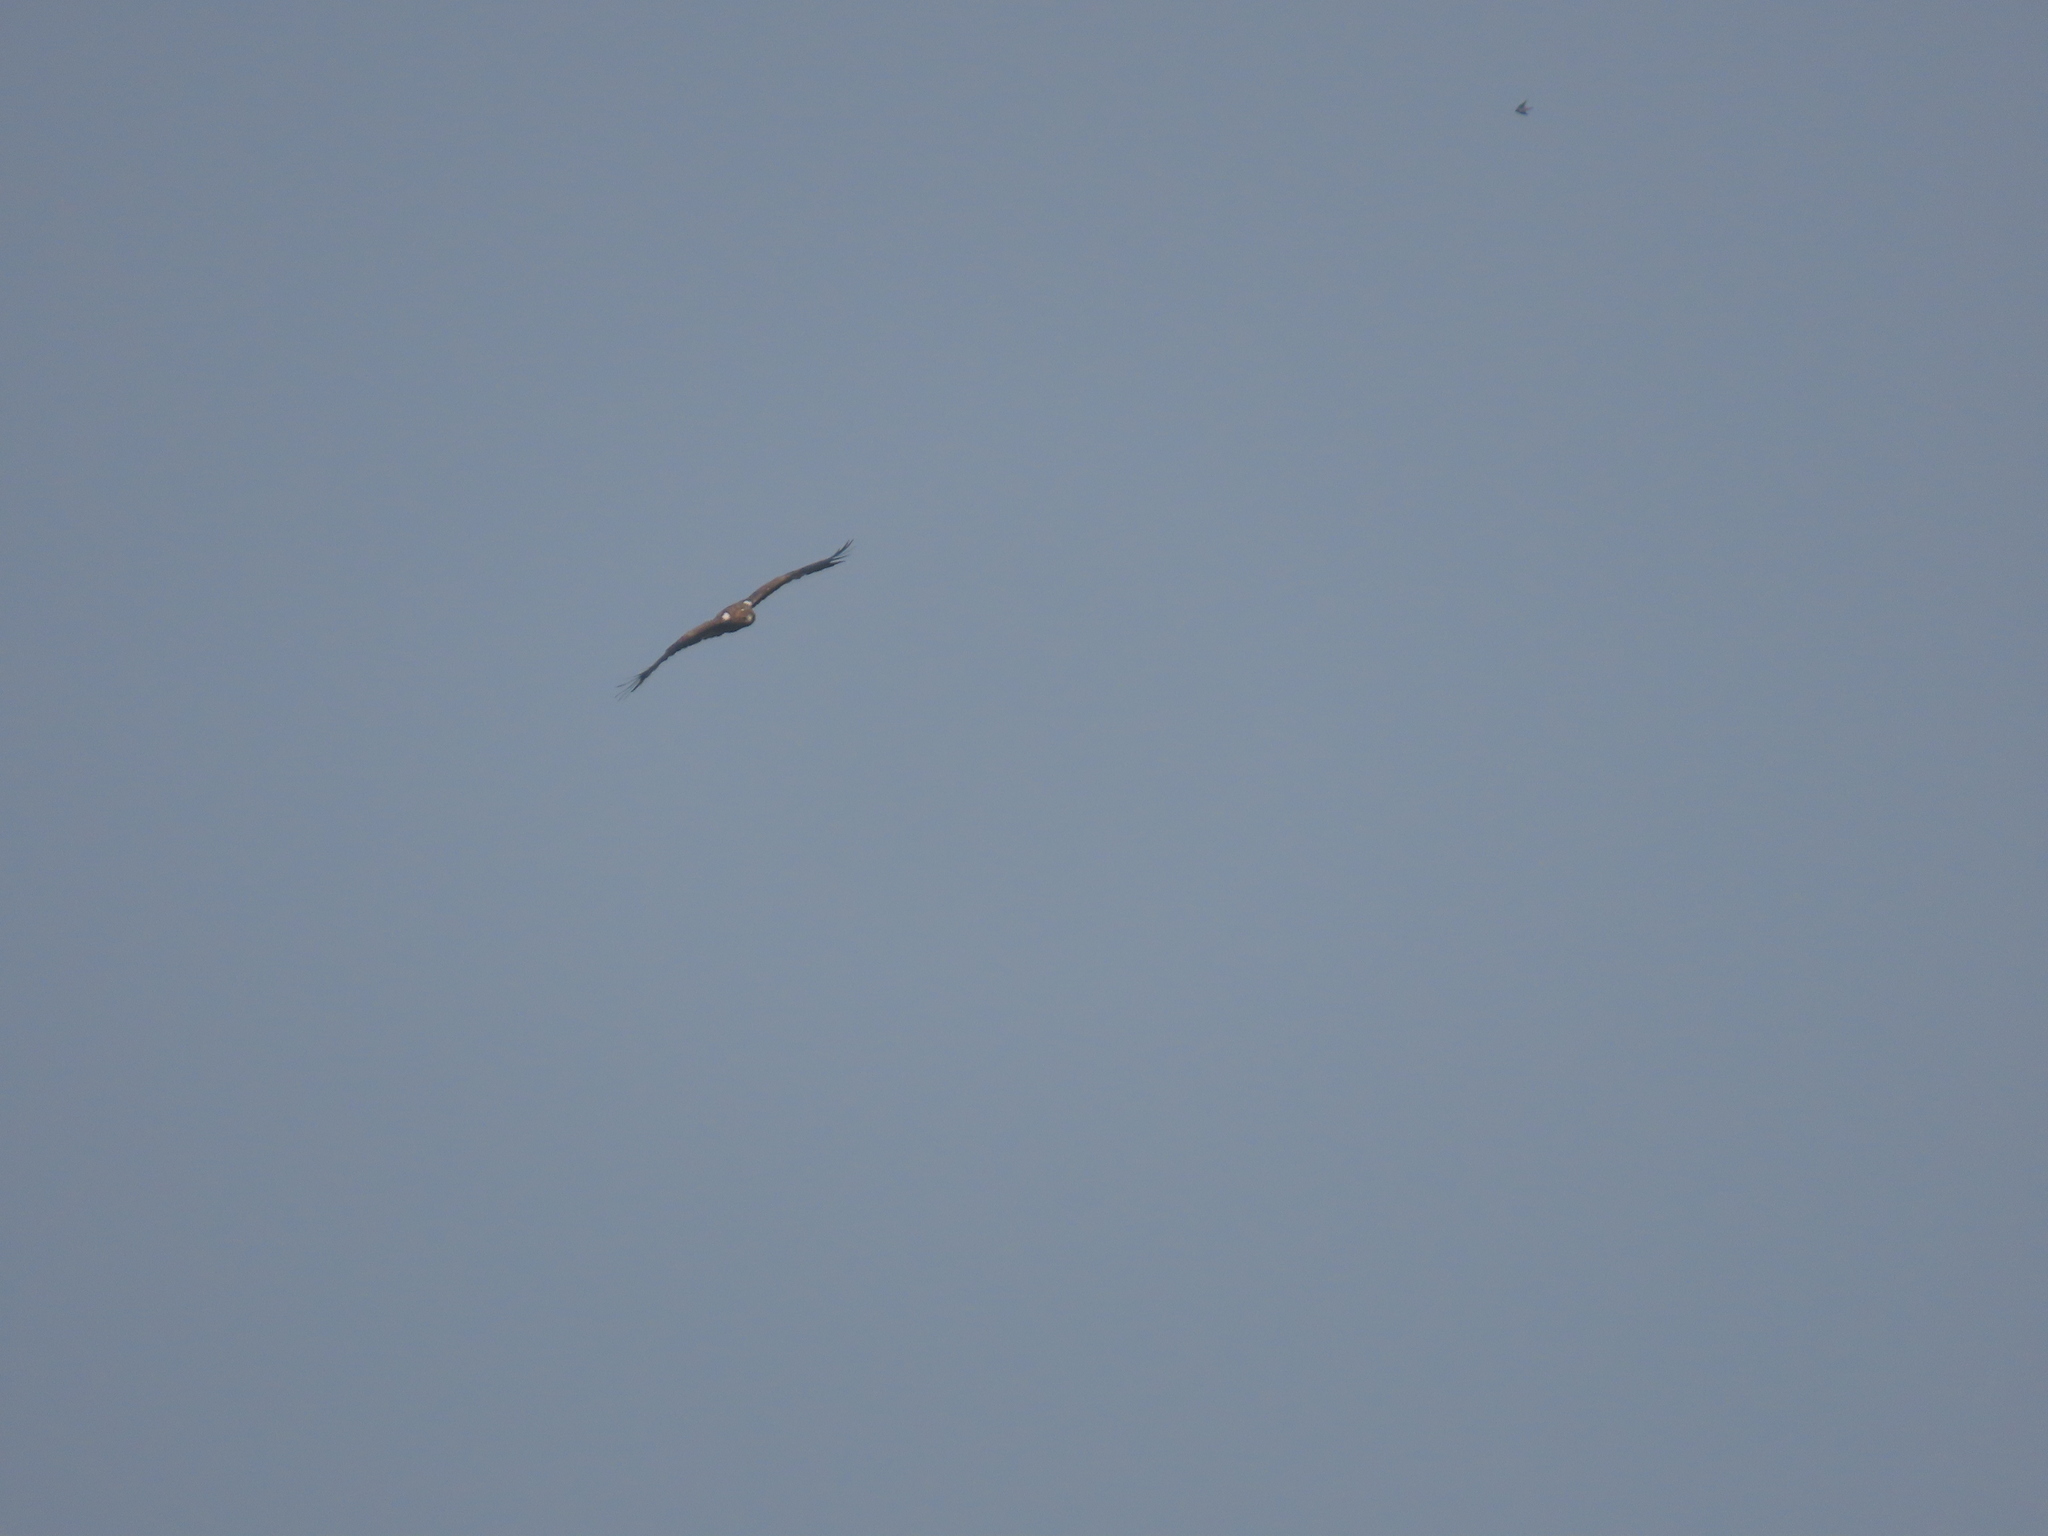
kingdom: Animalia
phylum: Chordata
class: Aves
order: Accipitriformes
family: Accipitridae
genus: Hieraaetus
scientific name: Hieraaetus pennatus
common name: Booted eagle
